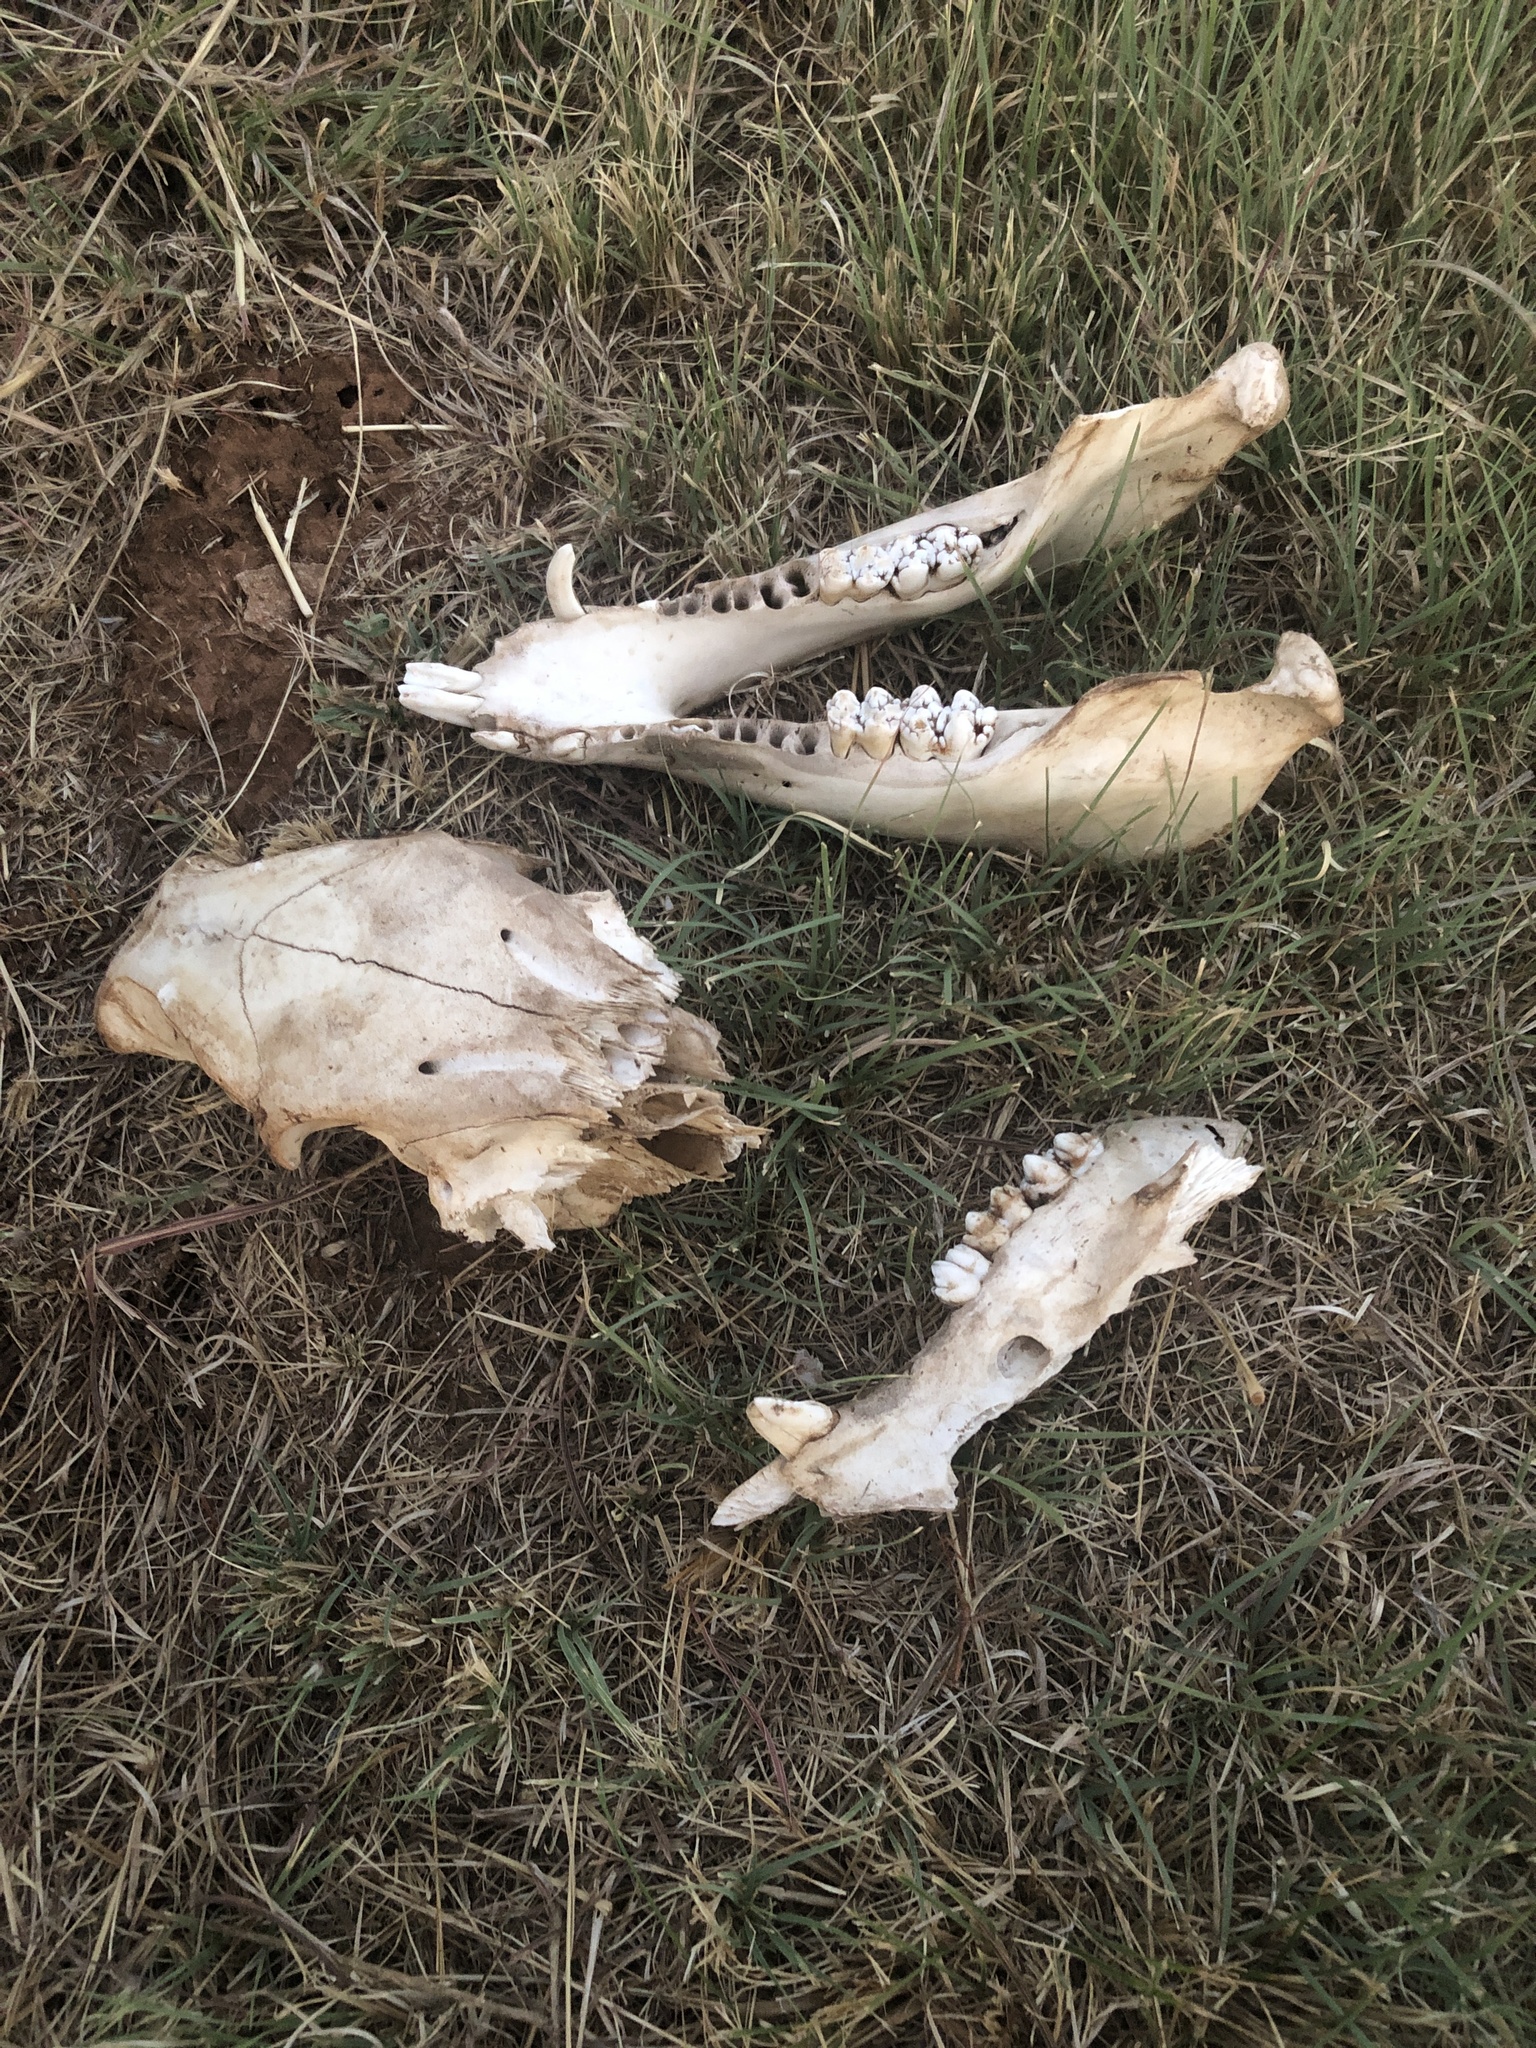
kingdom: Animalia
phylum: Chordata
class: Mammalia
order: Artiodactyla
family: Suidae
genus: Sus
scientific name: Sus scrofa
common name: Wild boar
